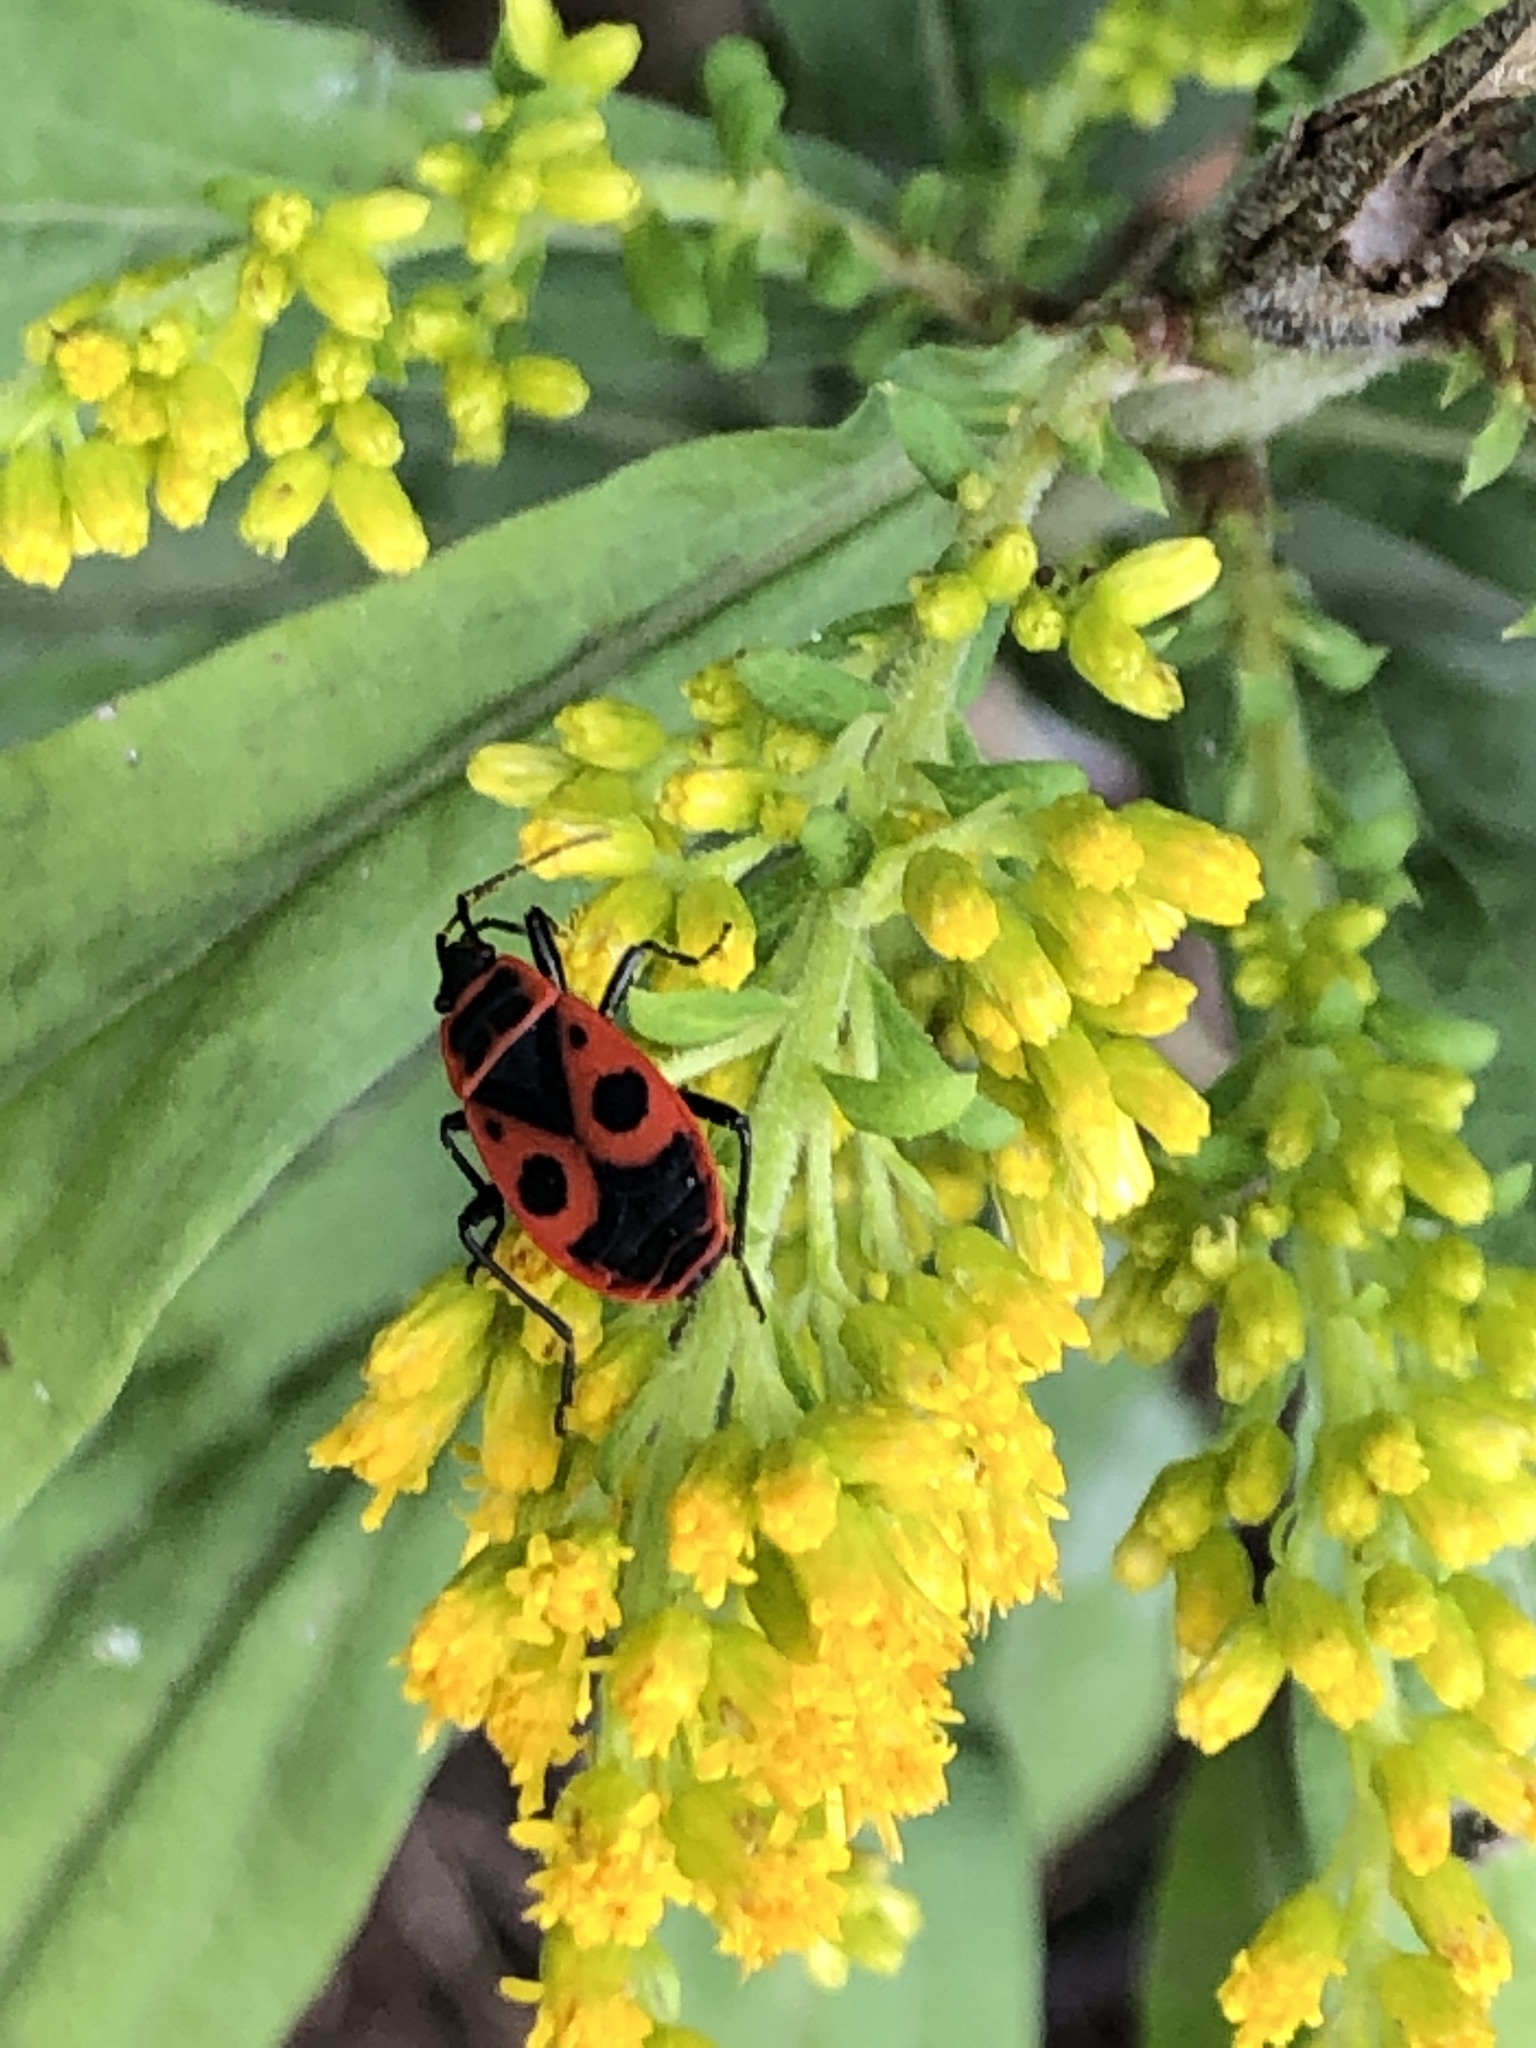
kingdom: Animalia
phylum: Arthropoda
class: Insecta
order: Hemiptera
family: Pyrrhocoridae
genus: Pyrrhocoris
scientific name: Pyrrhocoris apterus
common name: Firebug
